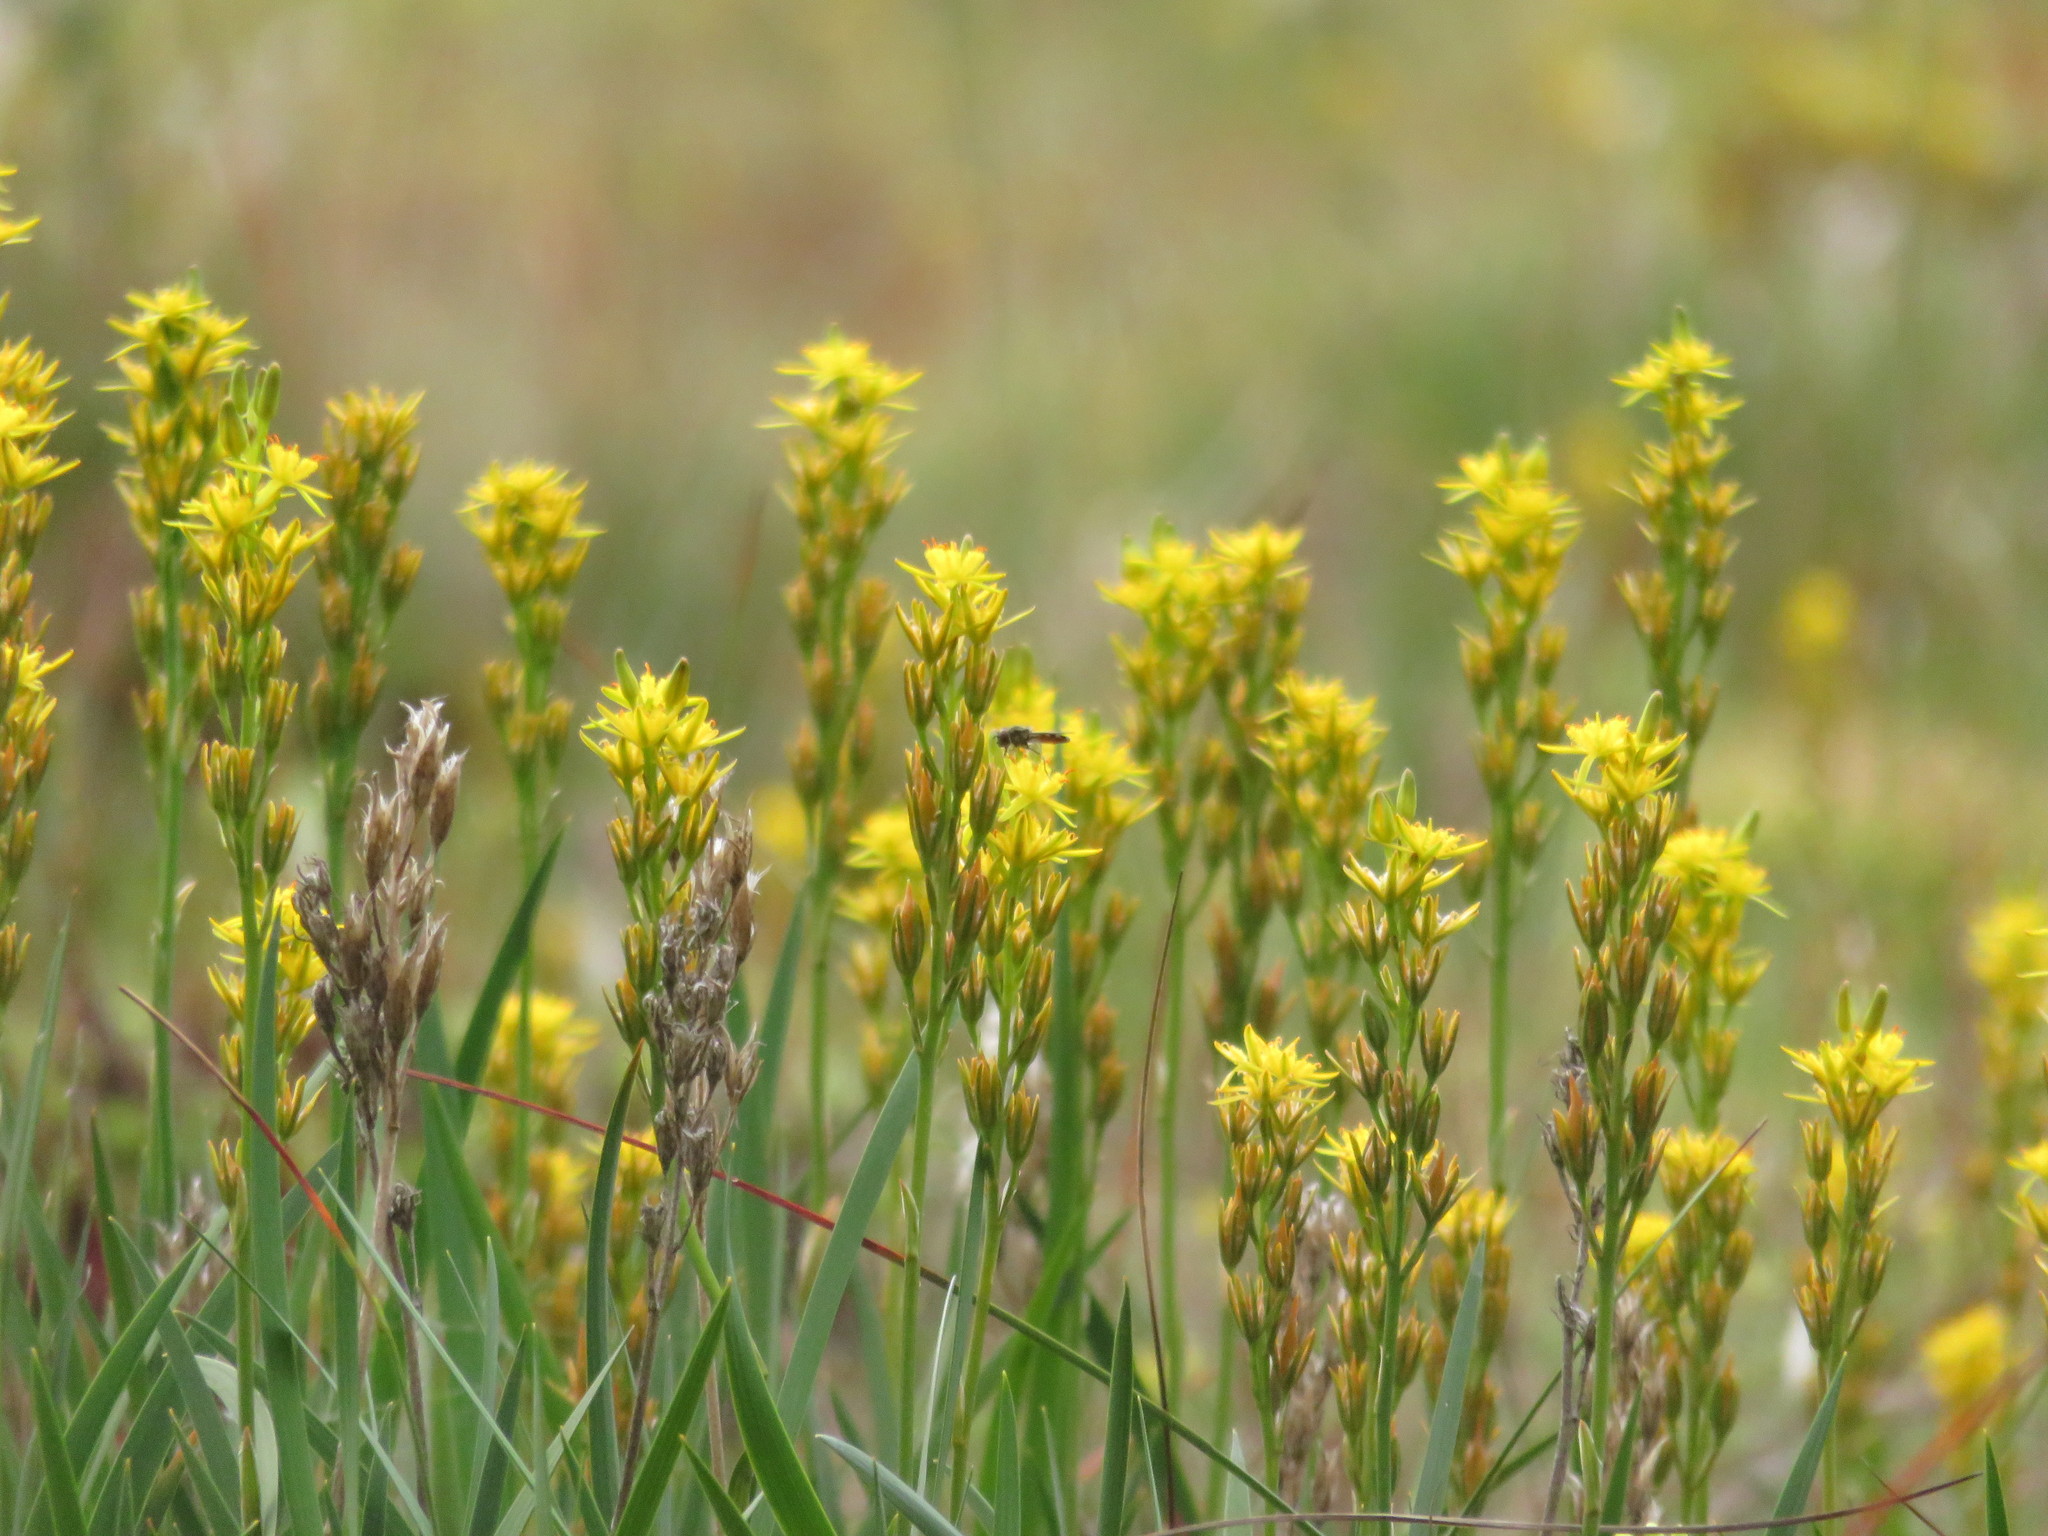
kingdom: Plantae
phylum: Tracheophyta
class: Liliopsida
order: Dioscoreales
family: Nartheciaceae
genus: Narthecium
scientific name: Narthecium ossifragum
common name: Bog asphodel
